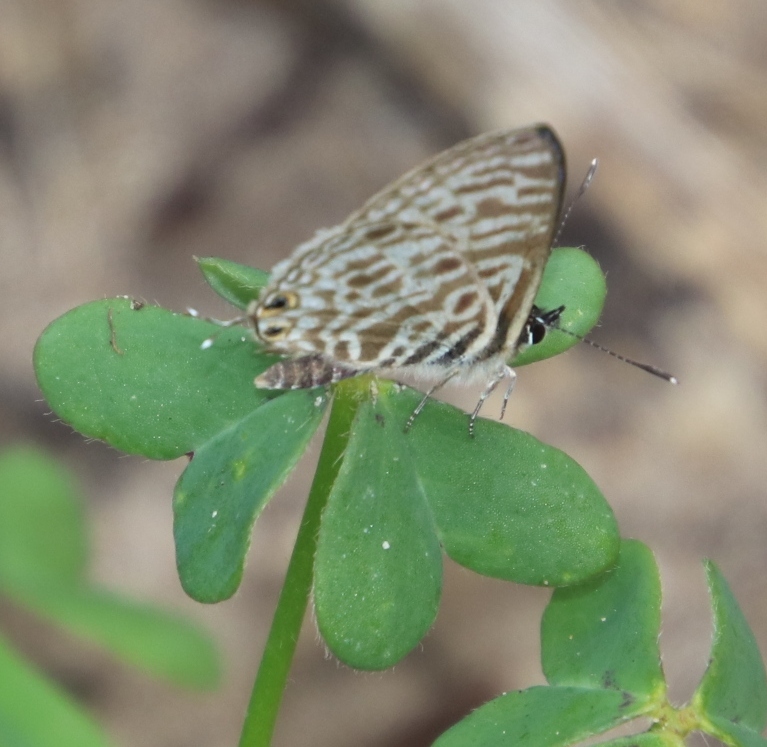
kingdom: Animalia
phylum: Arthropoda
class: Insecta
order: Lepidoptera
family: Lycaenidae
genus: Leptotes
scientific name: Leptotes
